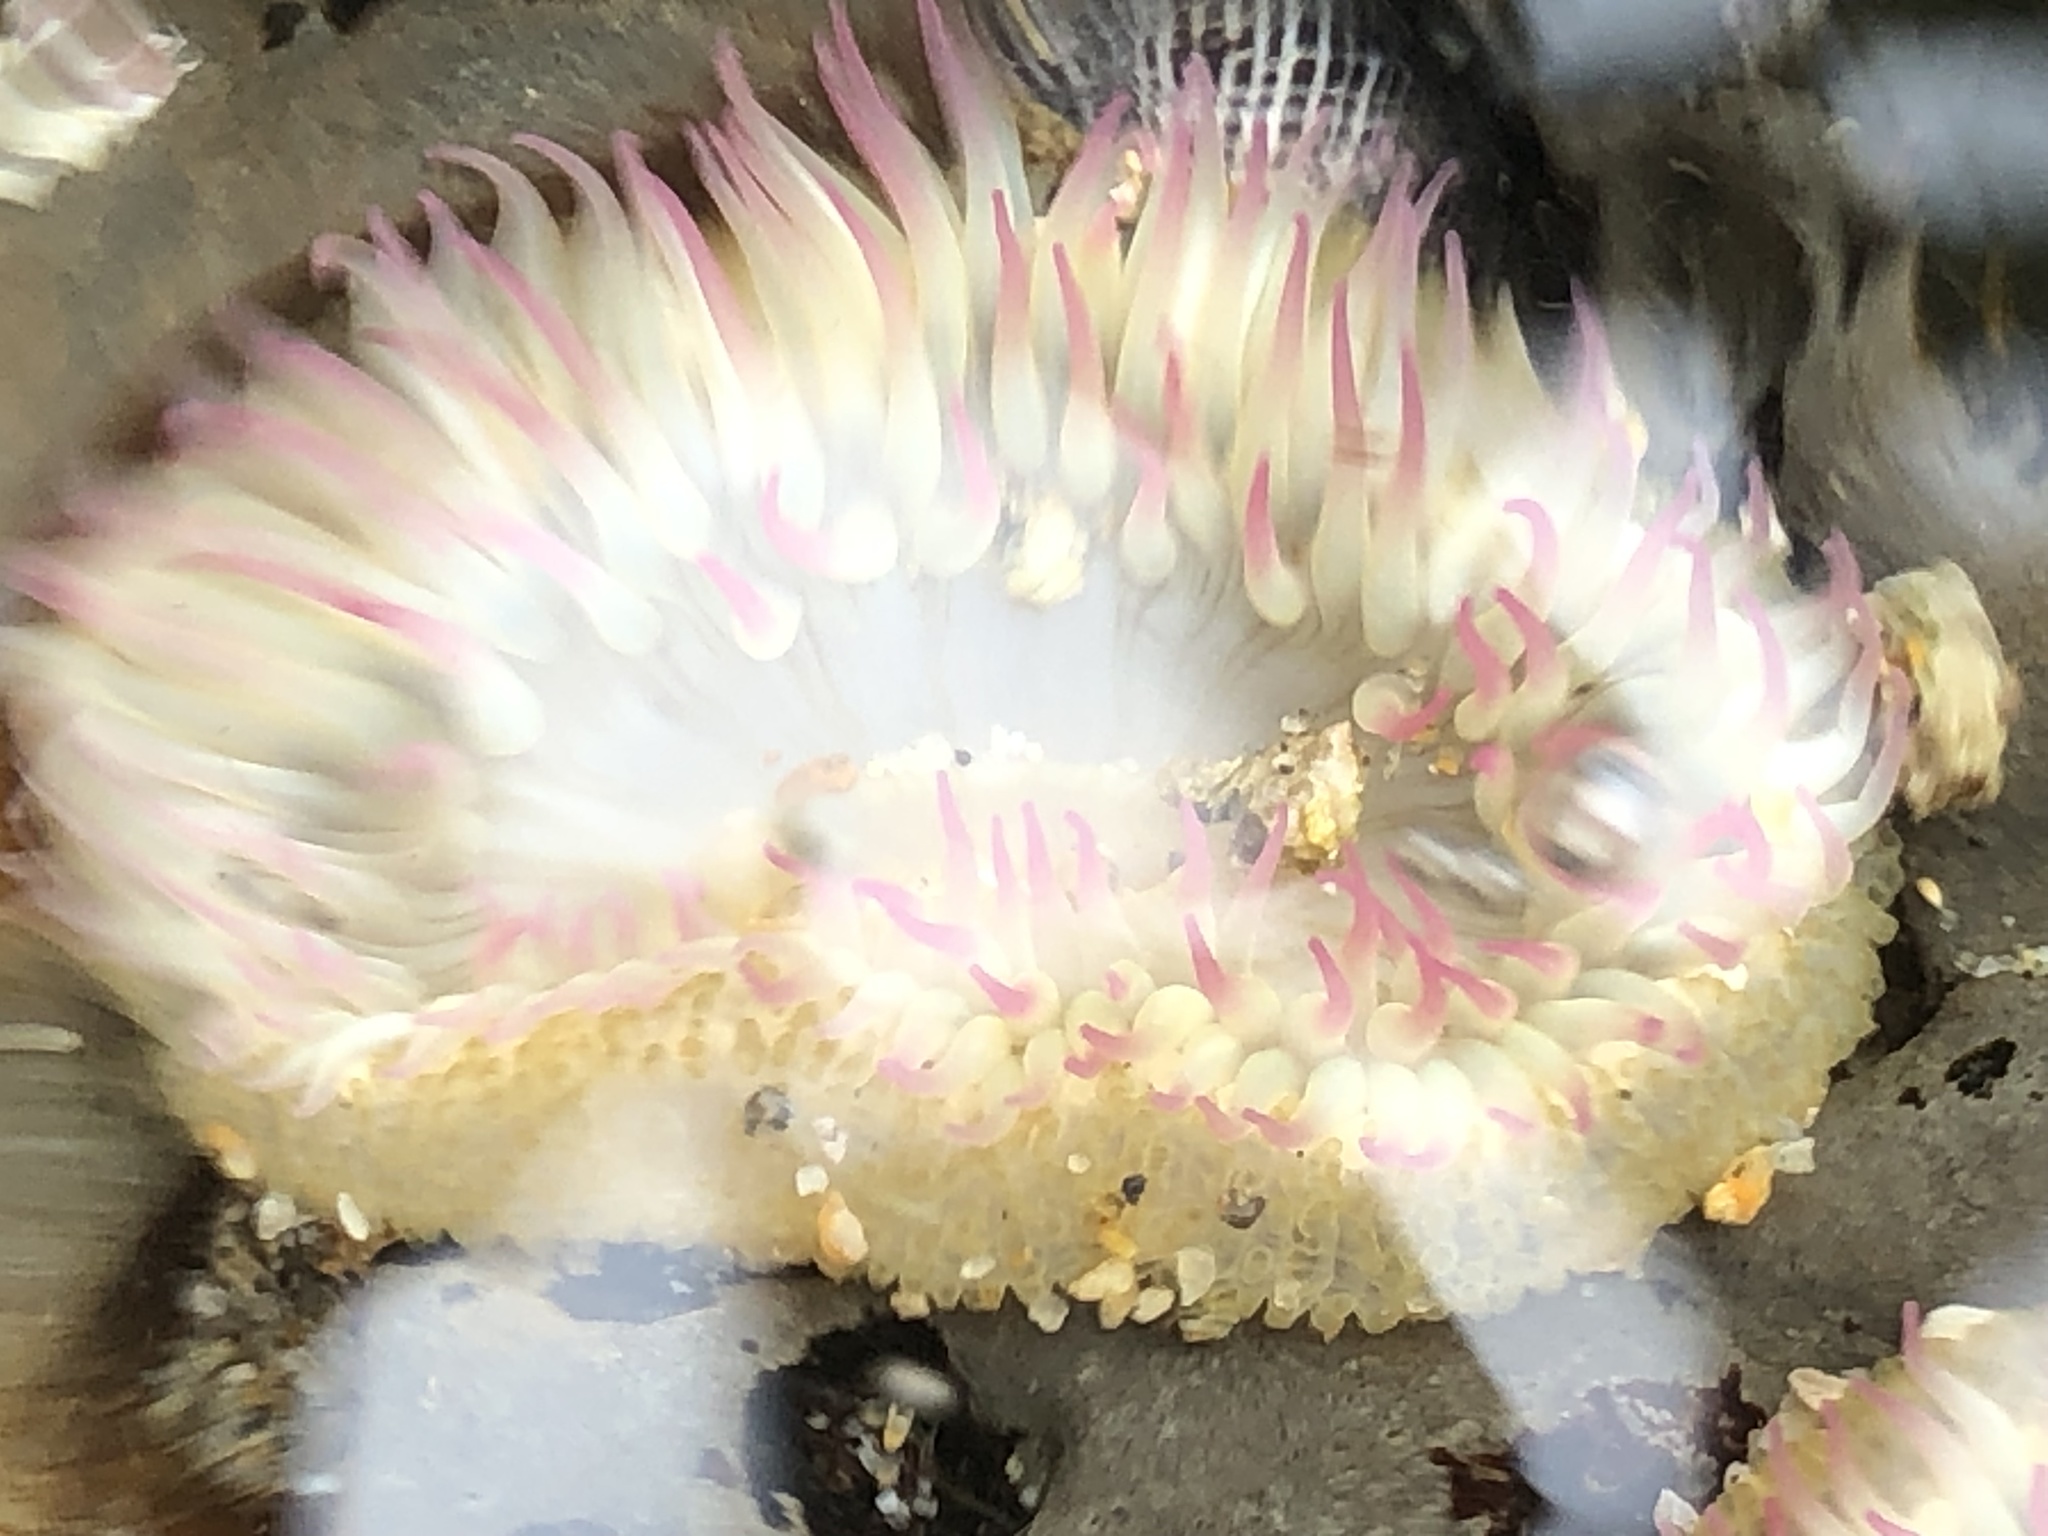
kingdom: Animalia
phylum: Cnidaria
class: Anthozoa
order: Actiniaria
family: Actiniidae
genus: Anthopleura
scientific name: Anthopleura elegantissima
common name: Clonal anemone
